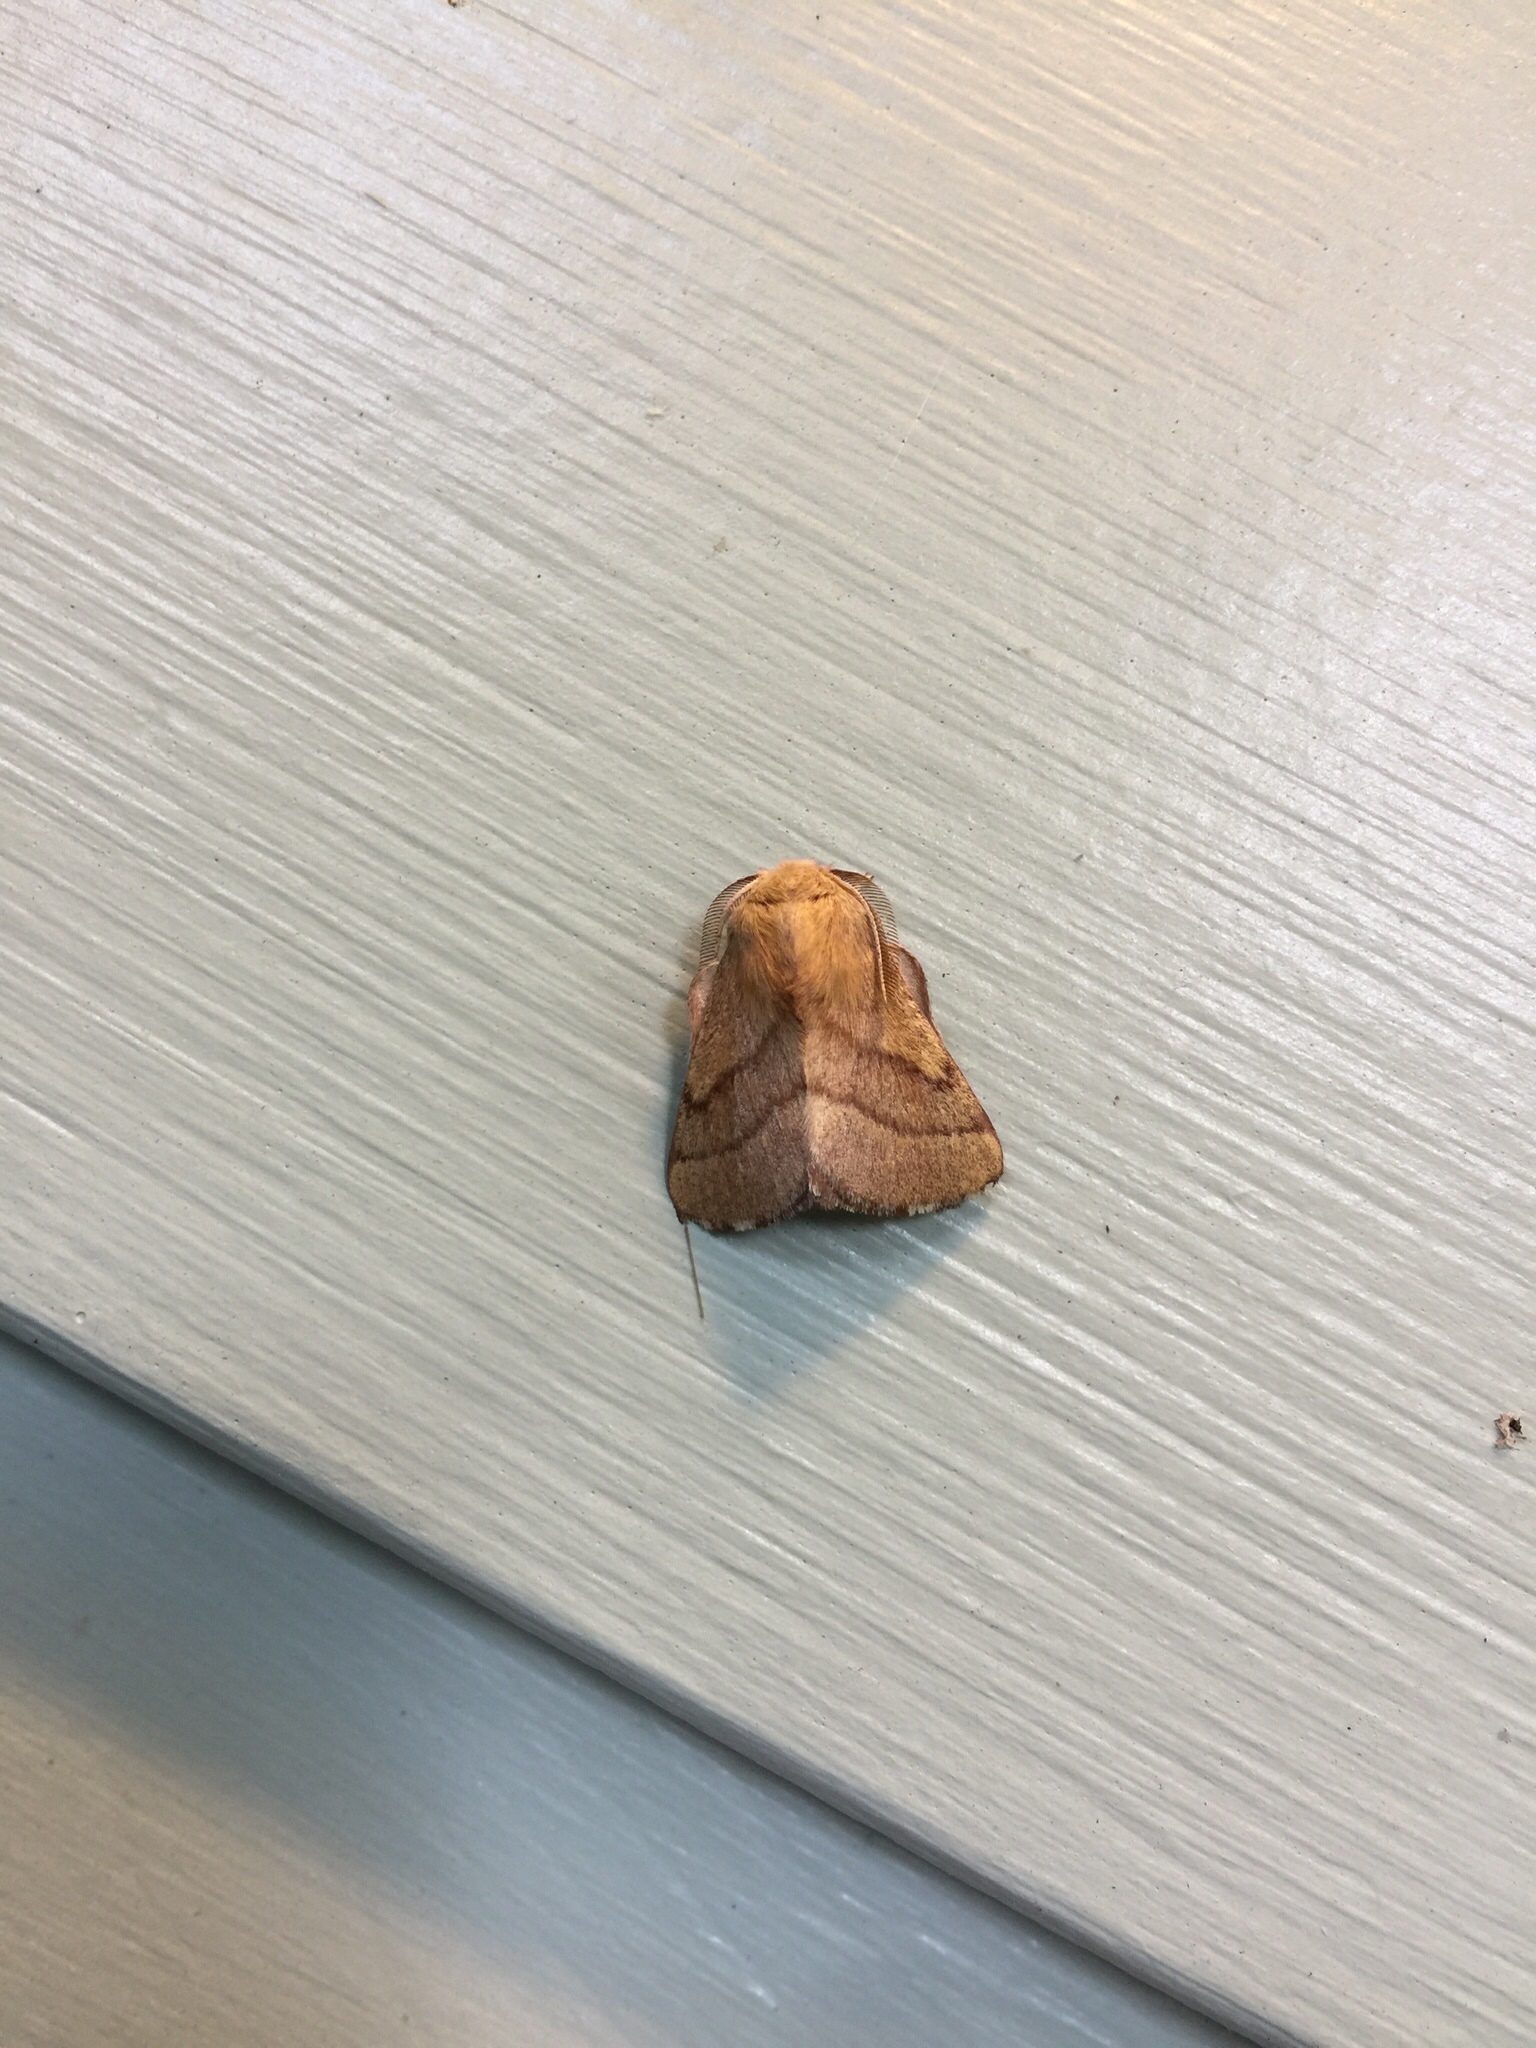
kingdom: Animalia
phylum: Arthropoda
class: Insecta
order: Lepidoptera
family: Lasiocampidae
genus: Malacosoma
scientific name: Malacosoma disstria
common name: Forest tent caterpillar
